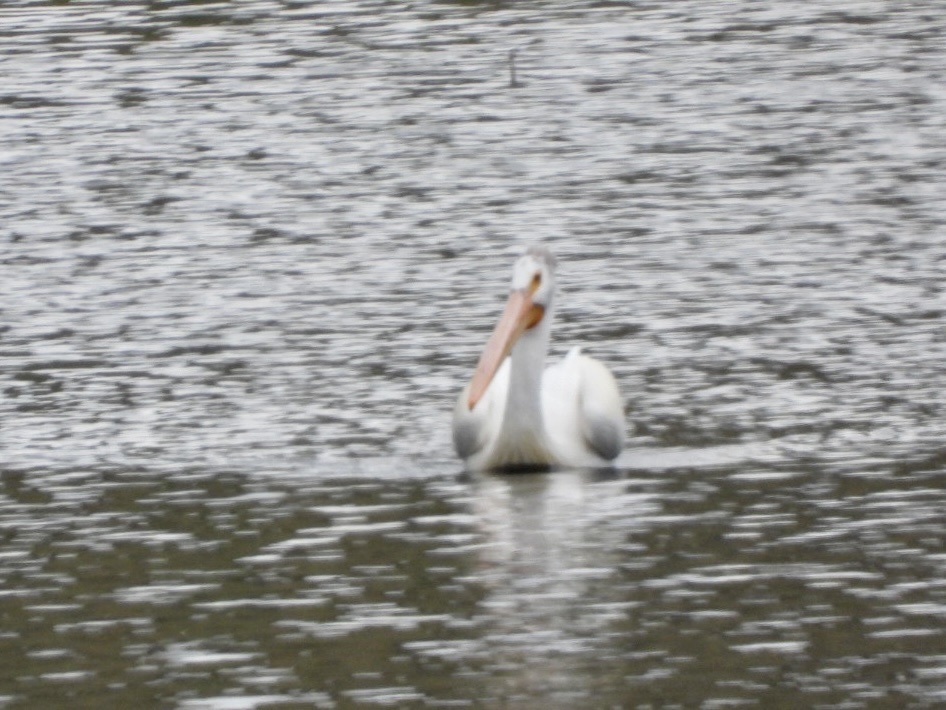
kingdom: Animalia
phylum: Chordata
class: Aves
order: Pelecaniformes
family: Pelecanidae
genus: Pelecanus
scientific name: Pelecanus erythrorhynchos
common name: American white pelican
